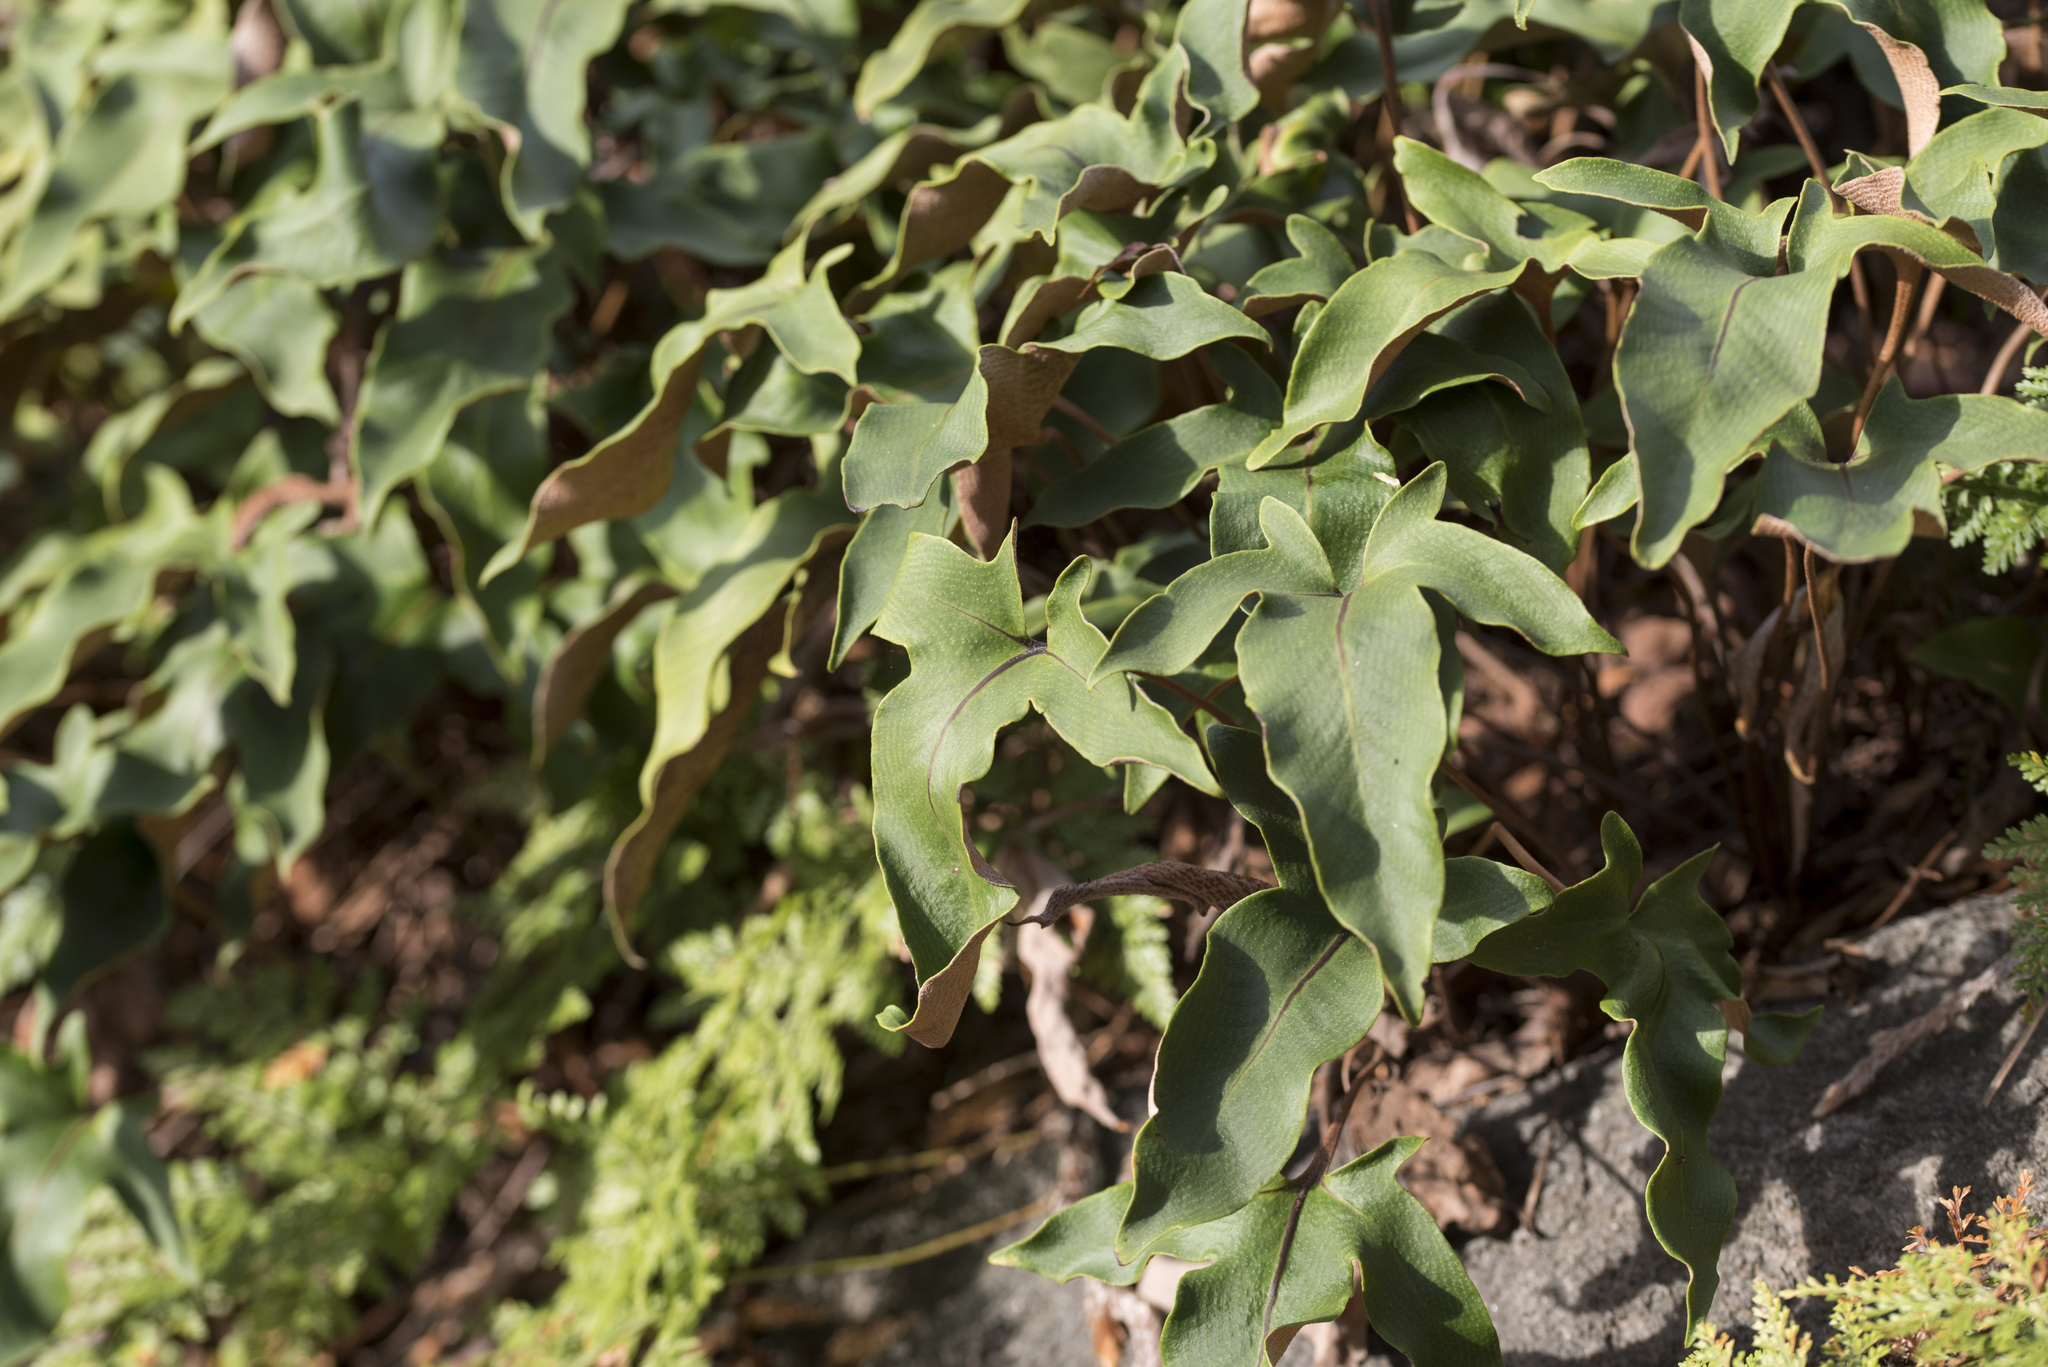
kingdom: Plantae
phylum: Tracheophyta
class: Polypodiopsida
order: Polypodiales
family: Polypodiaceae
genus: Pyrrosia
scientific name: Pyrrosia hastata
